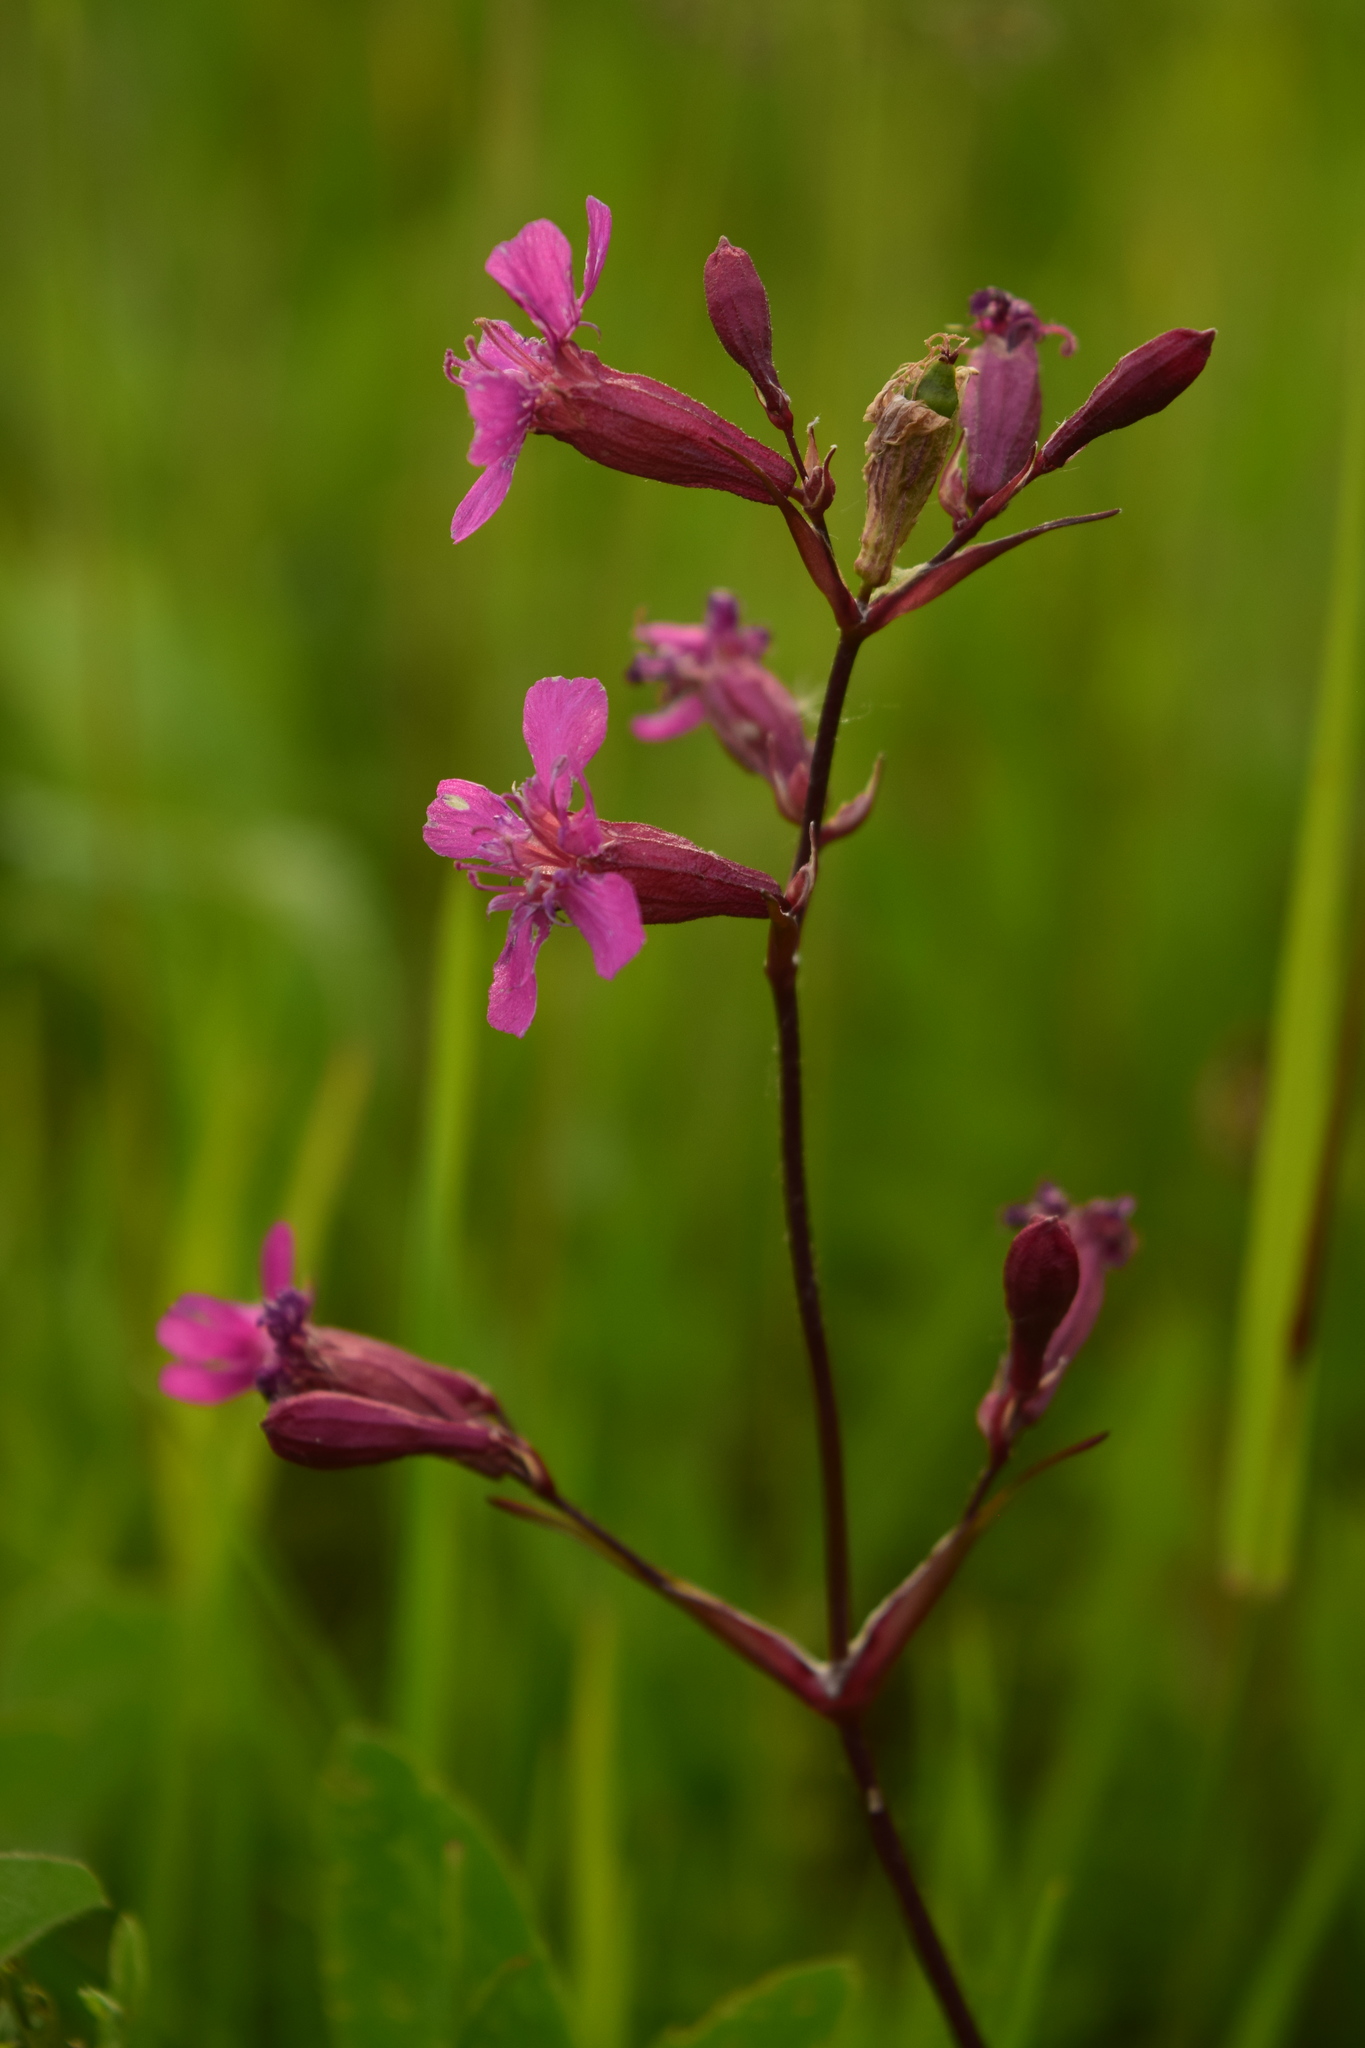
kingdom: Plantae
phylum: Tracheophyta
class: Magnoliopsida
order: Caryophyllales
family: Caryophyllaceae
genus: Viscaria
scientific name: Viscaria vulgaris
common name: Clammy campion
